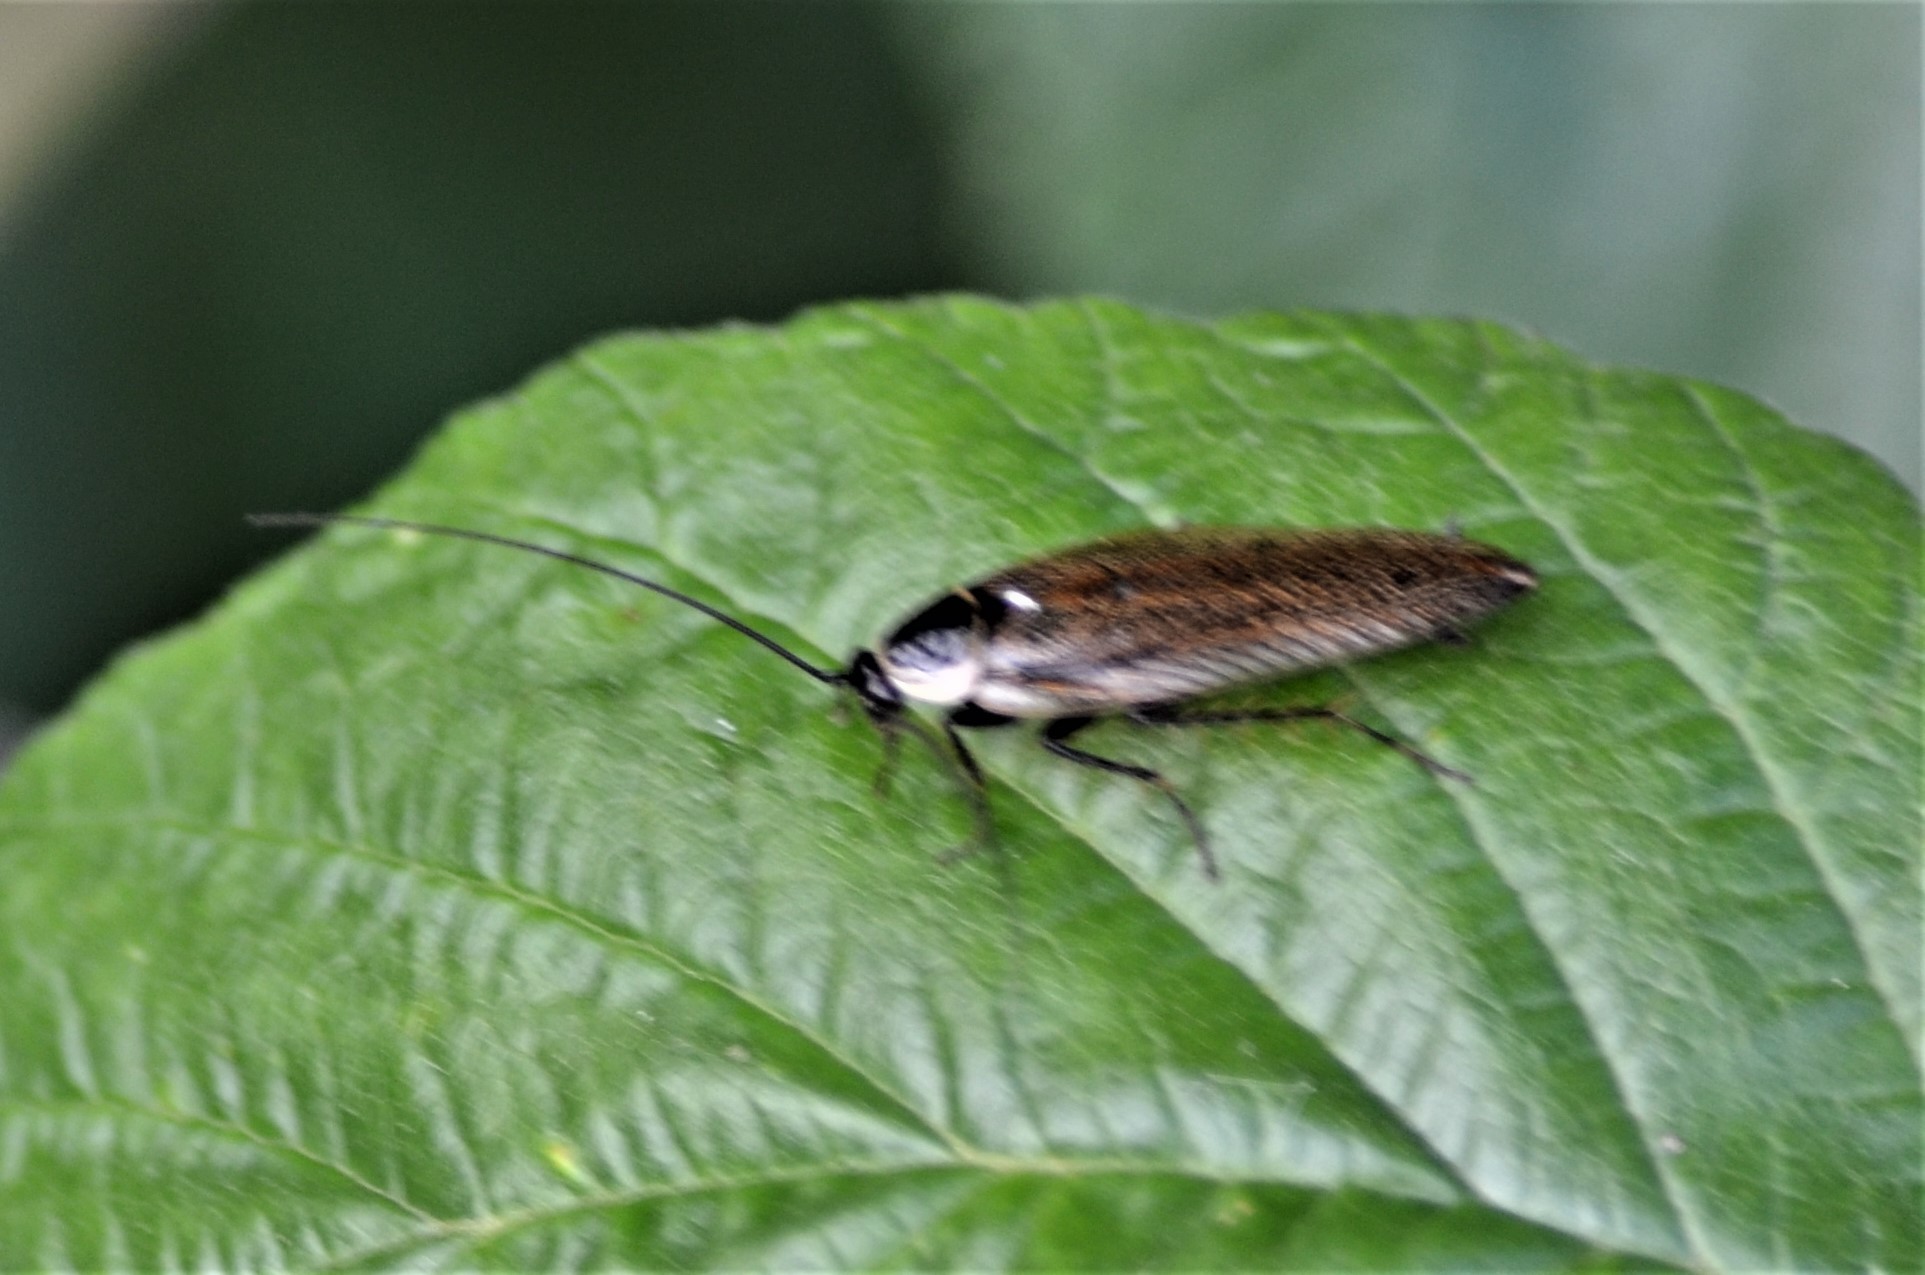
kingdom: Animalia
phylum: Arthropoda
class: Insecta
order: Blattodea
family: Ectobiidae
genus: Ectobius
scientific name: Ectobius lapponicus
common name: Dusky cockroach
